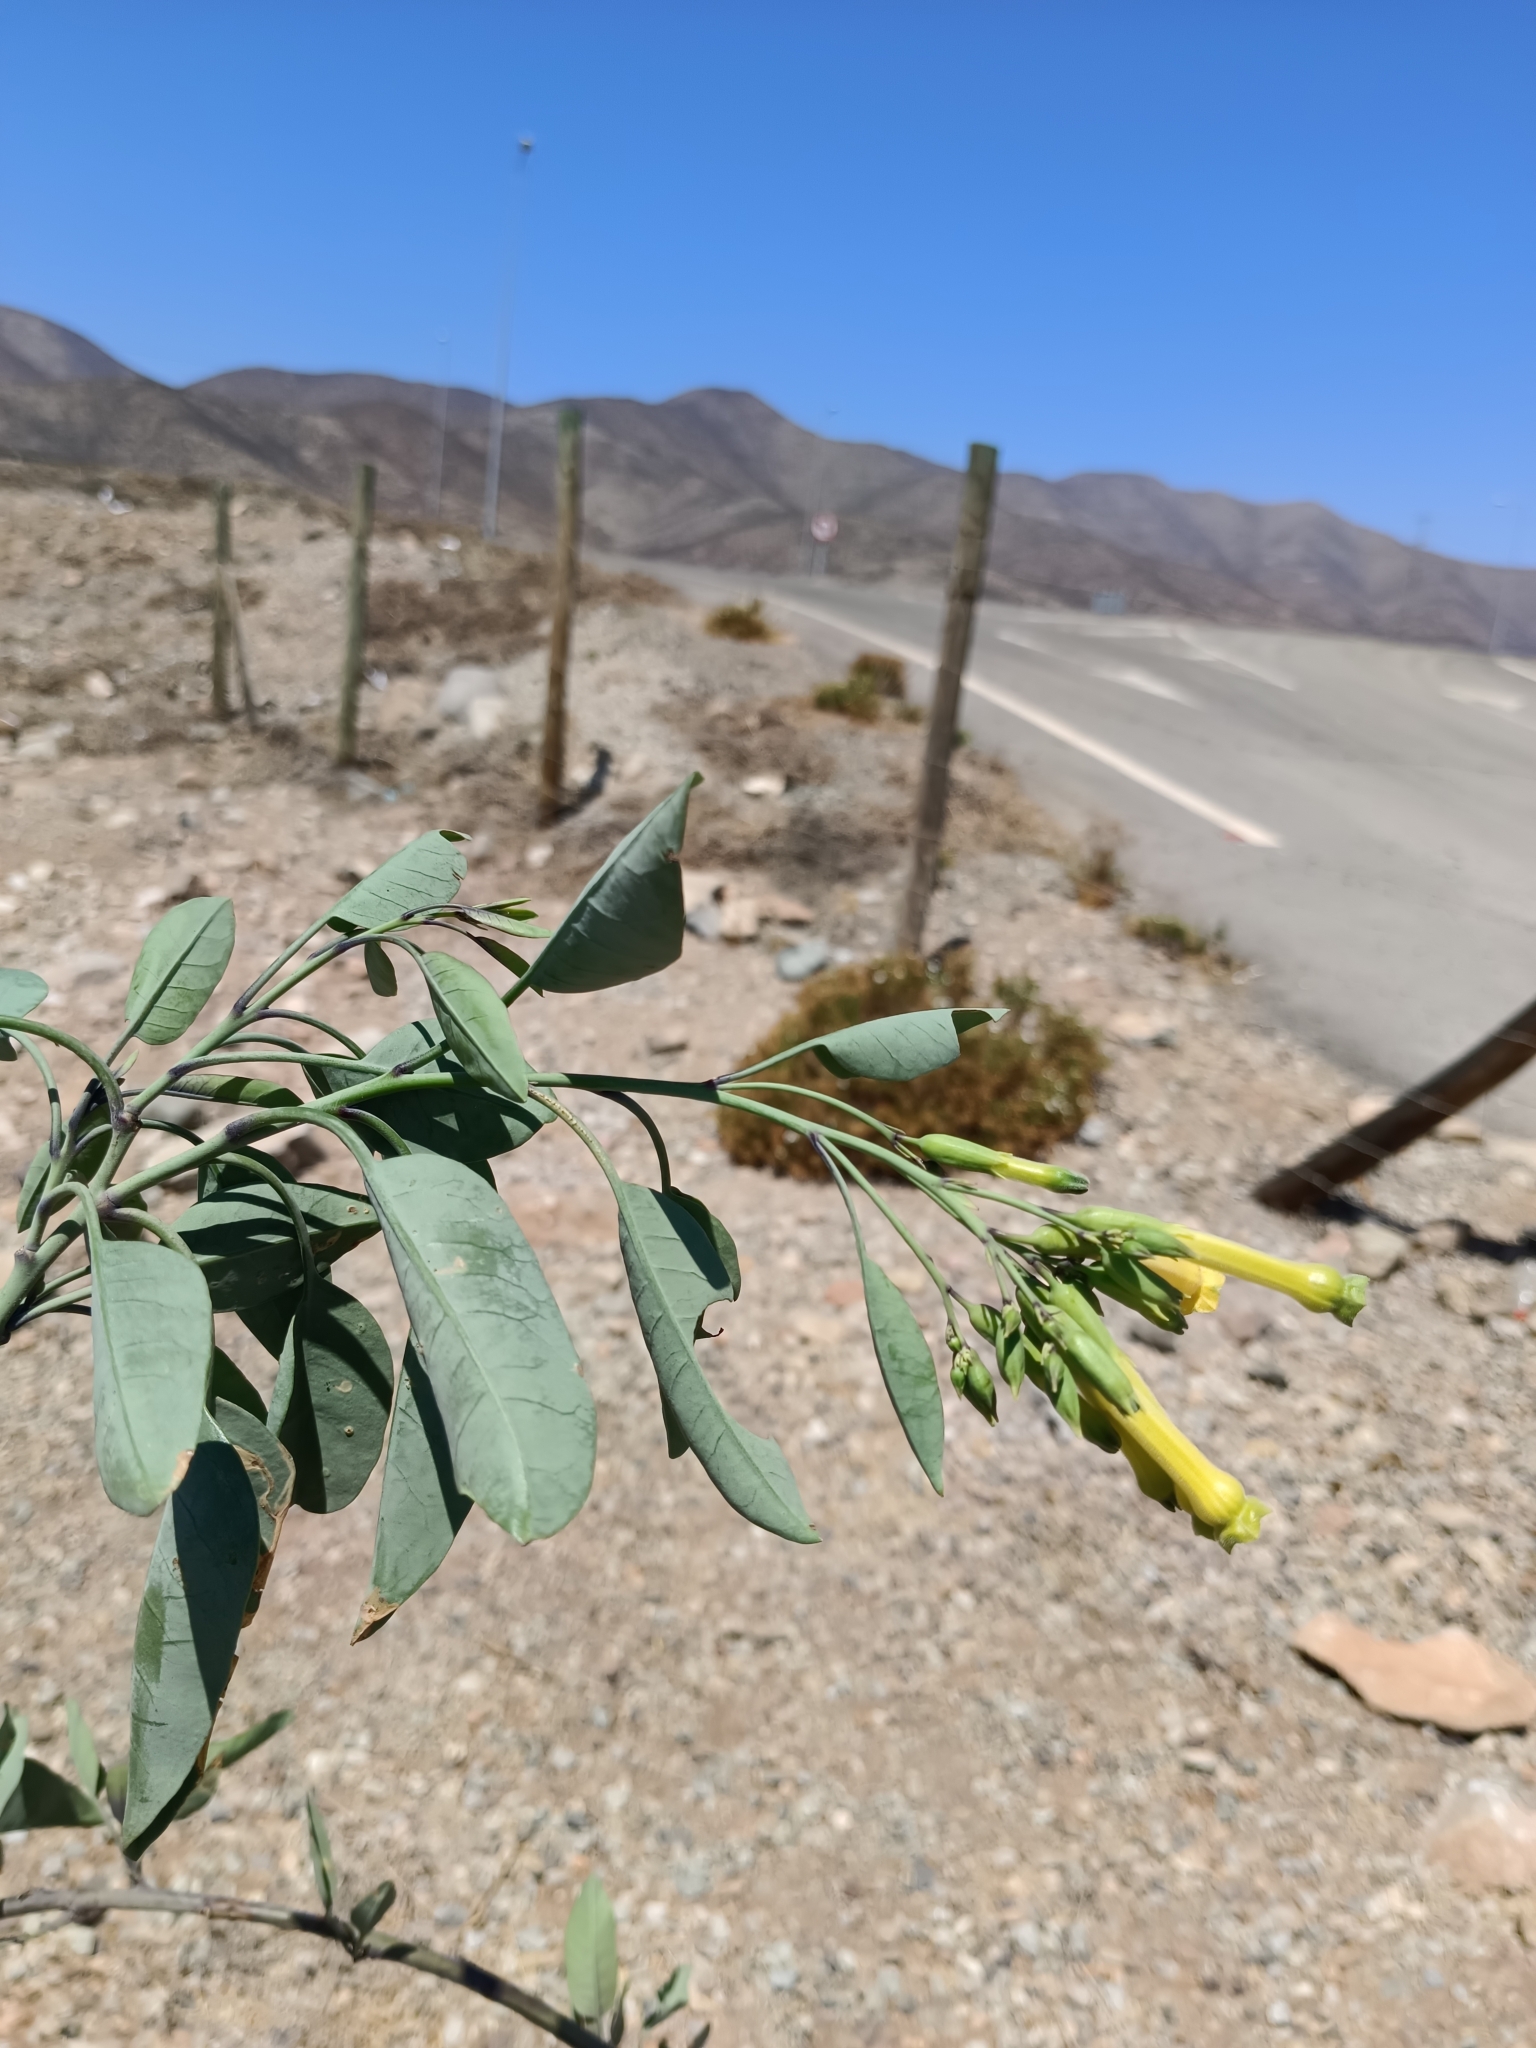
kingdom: Plantae
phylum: Tracheophyta
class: Magnoliopsida
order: Solanales
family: Solanaceae
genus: Nicotiana
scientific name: Nicotiana glauca
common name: Tree tobacco
